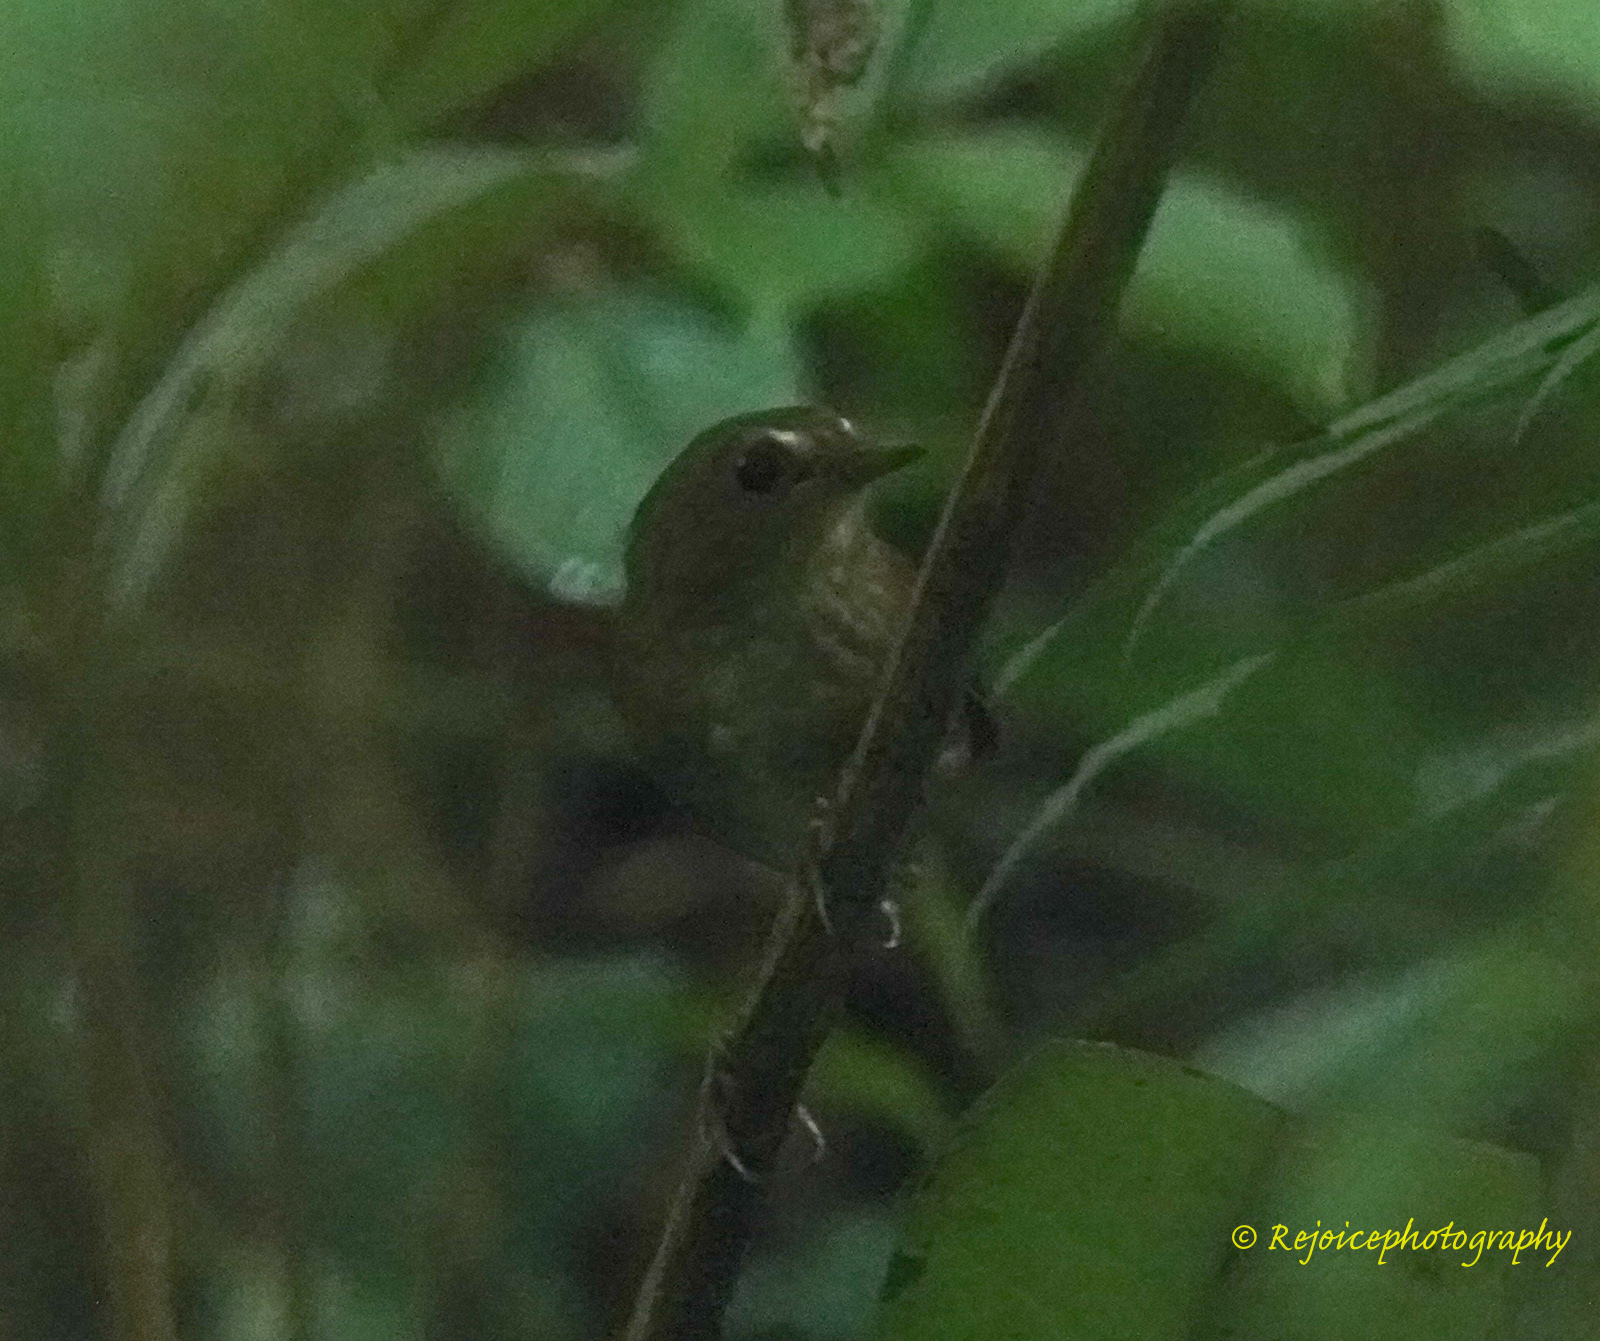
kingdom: Animalia
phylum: Chordata
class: Aves
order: Passeriformes
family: Muscicapidae
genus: Brachypteryx
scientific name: Brachypteryx leucophris
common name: Lesser shortwing
